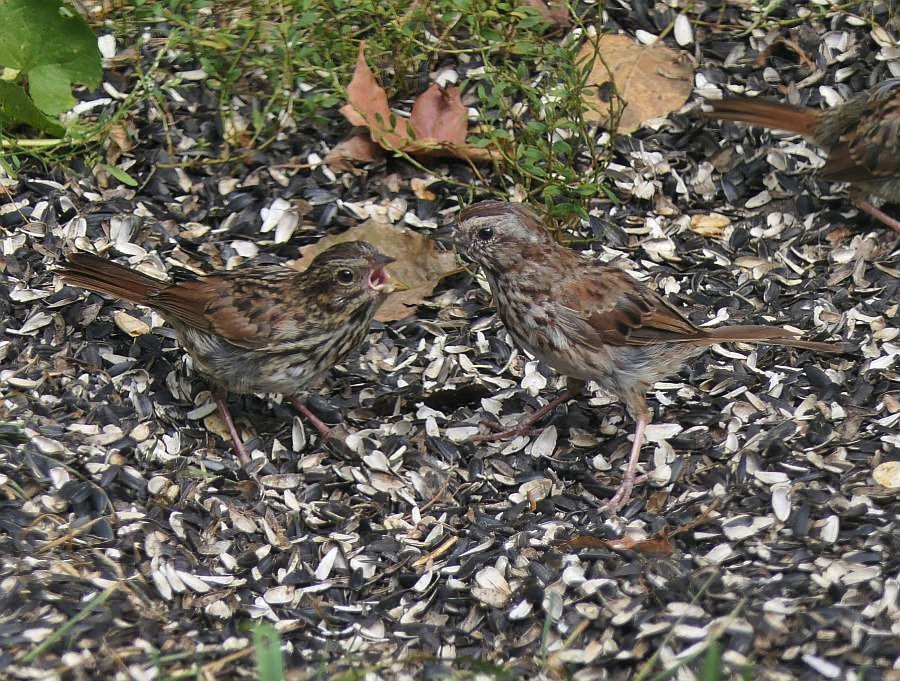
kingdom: Animalia
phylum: Chordata
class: Aves
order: Passeriformes
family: Passerellidae
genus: Melospiza
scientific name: Melospiza melodia
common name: Song sparrow
